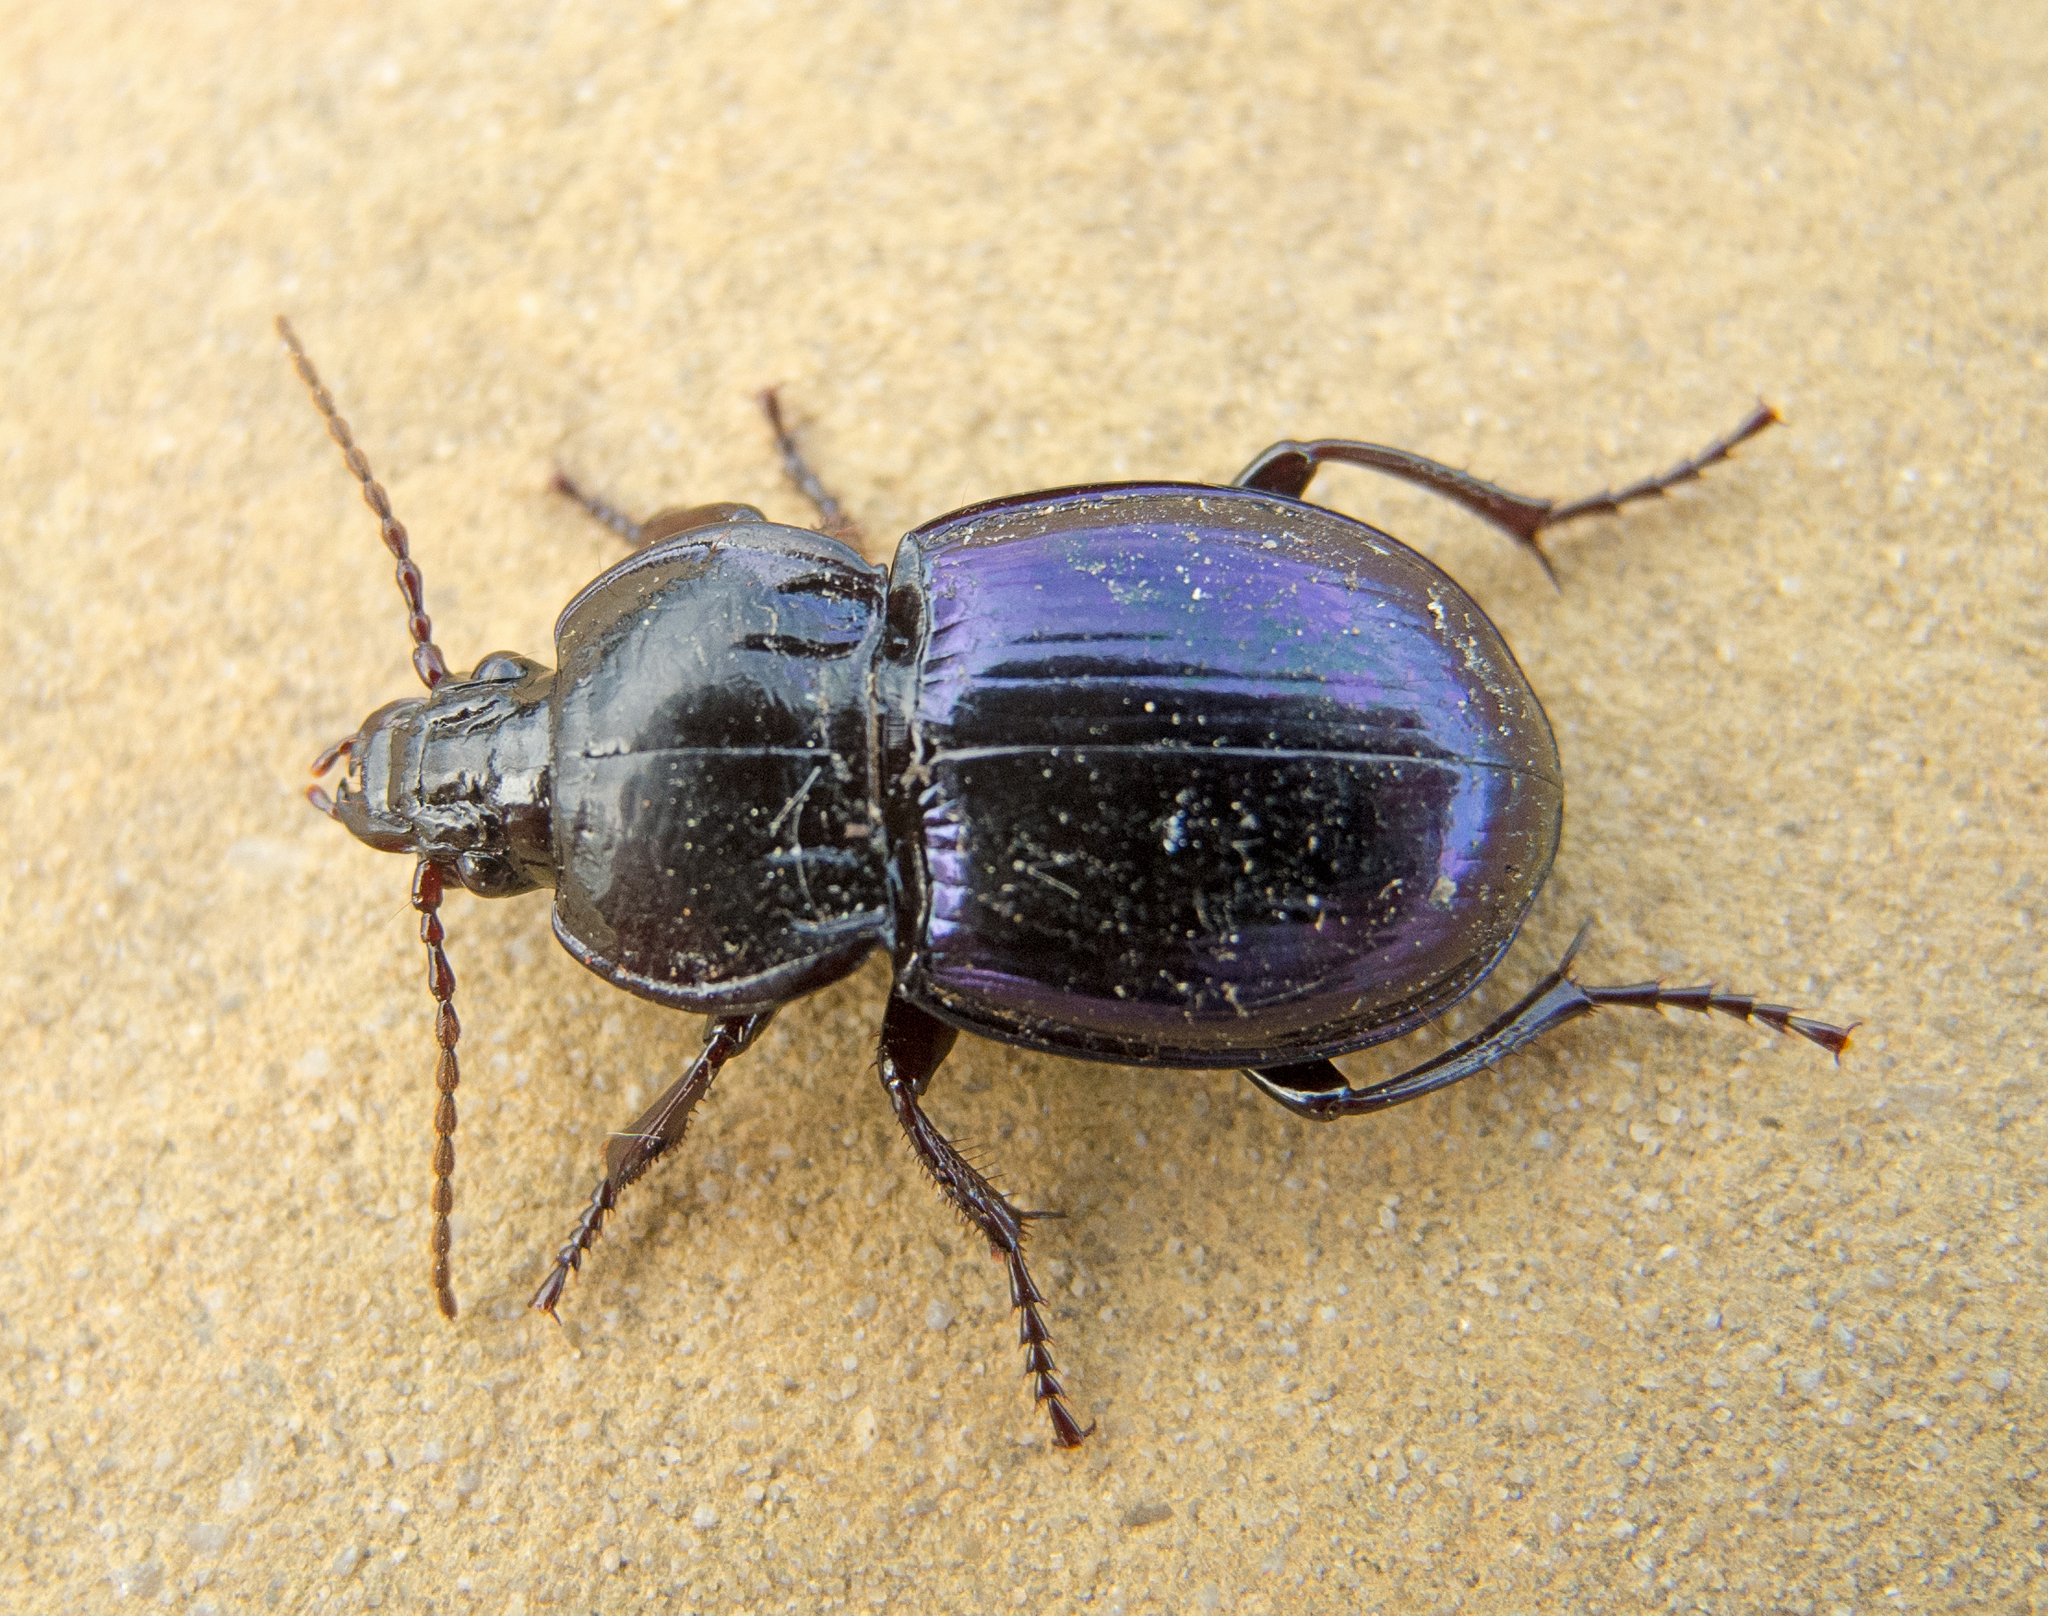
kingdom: Animalia
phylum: Arthropoda
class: Insecta
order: Coleoptera
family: Carabidae
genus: Myas
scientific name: Myas chalybaeus
